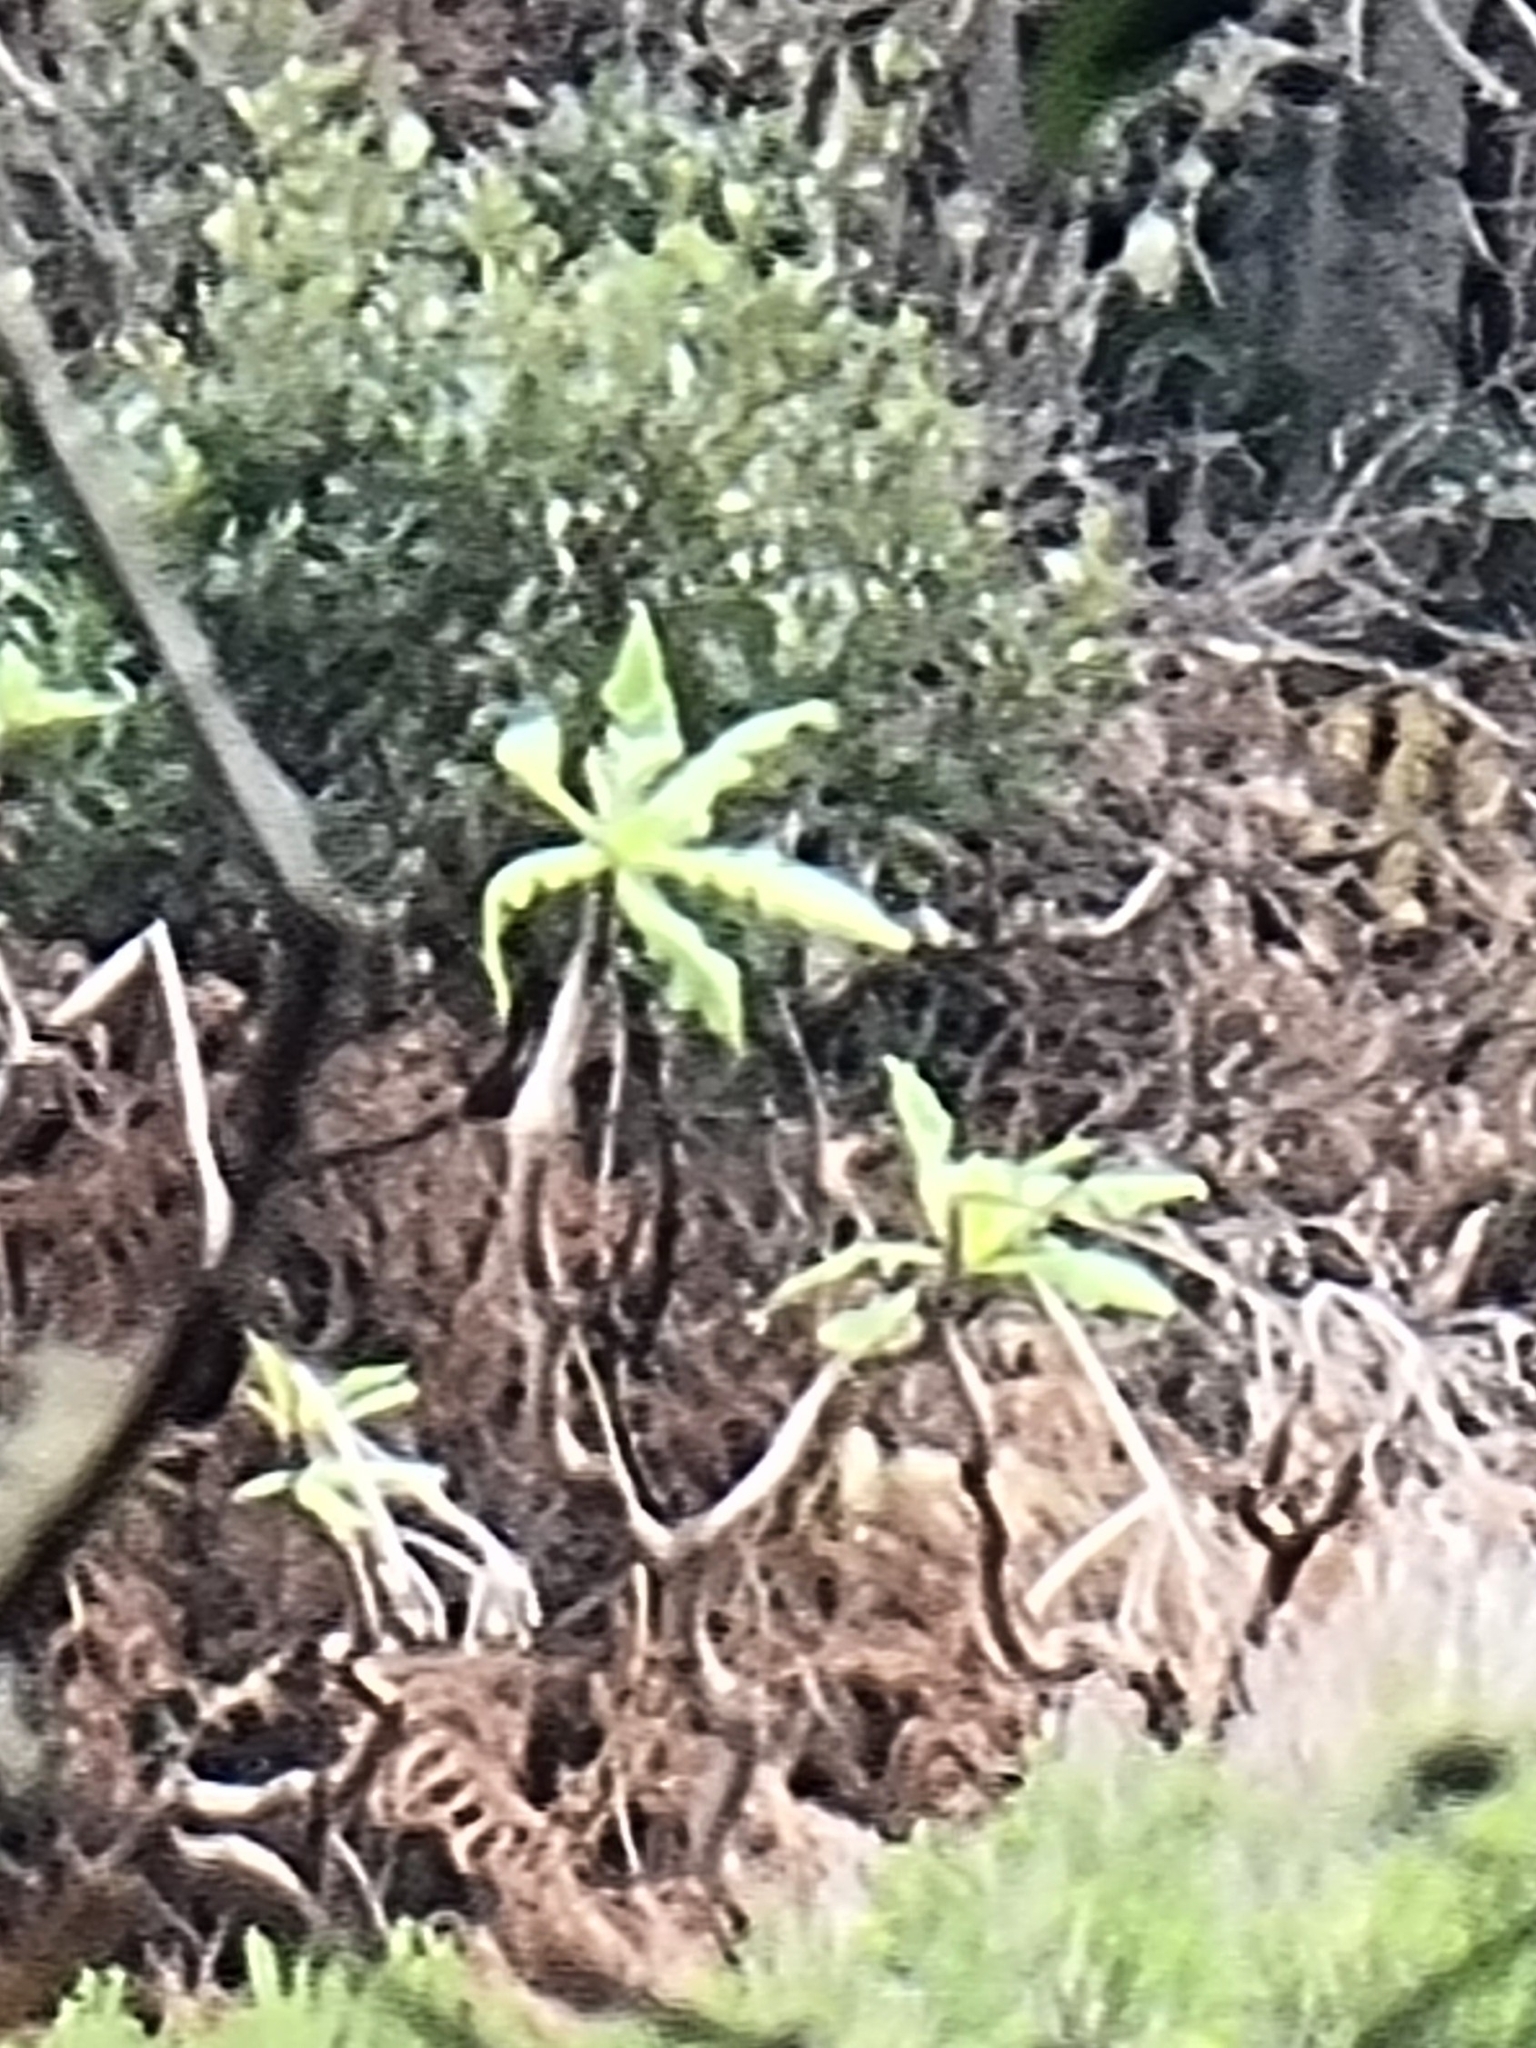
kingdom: Plantae
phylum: Tracheophyta
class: Magnoliopsida
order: Asterales
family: Asteraceae
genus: Sonchus
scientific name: Sonchus fruticosus
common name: Shrubby sow-thistle
